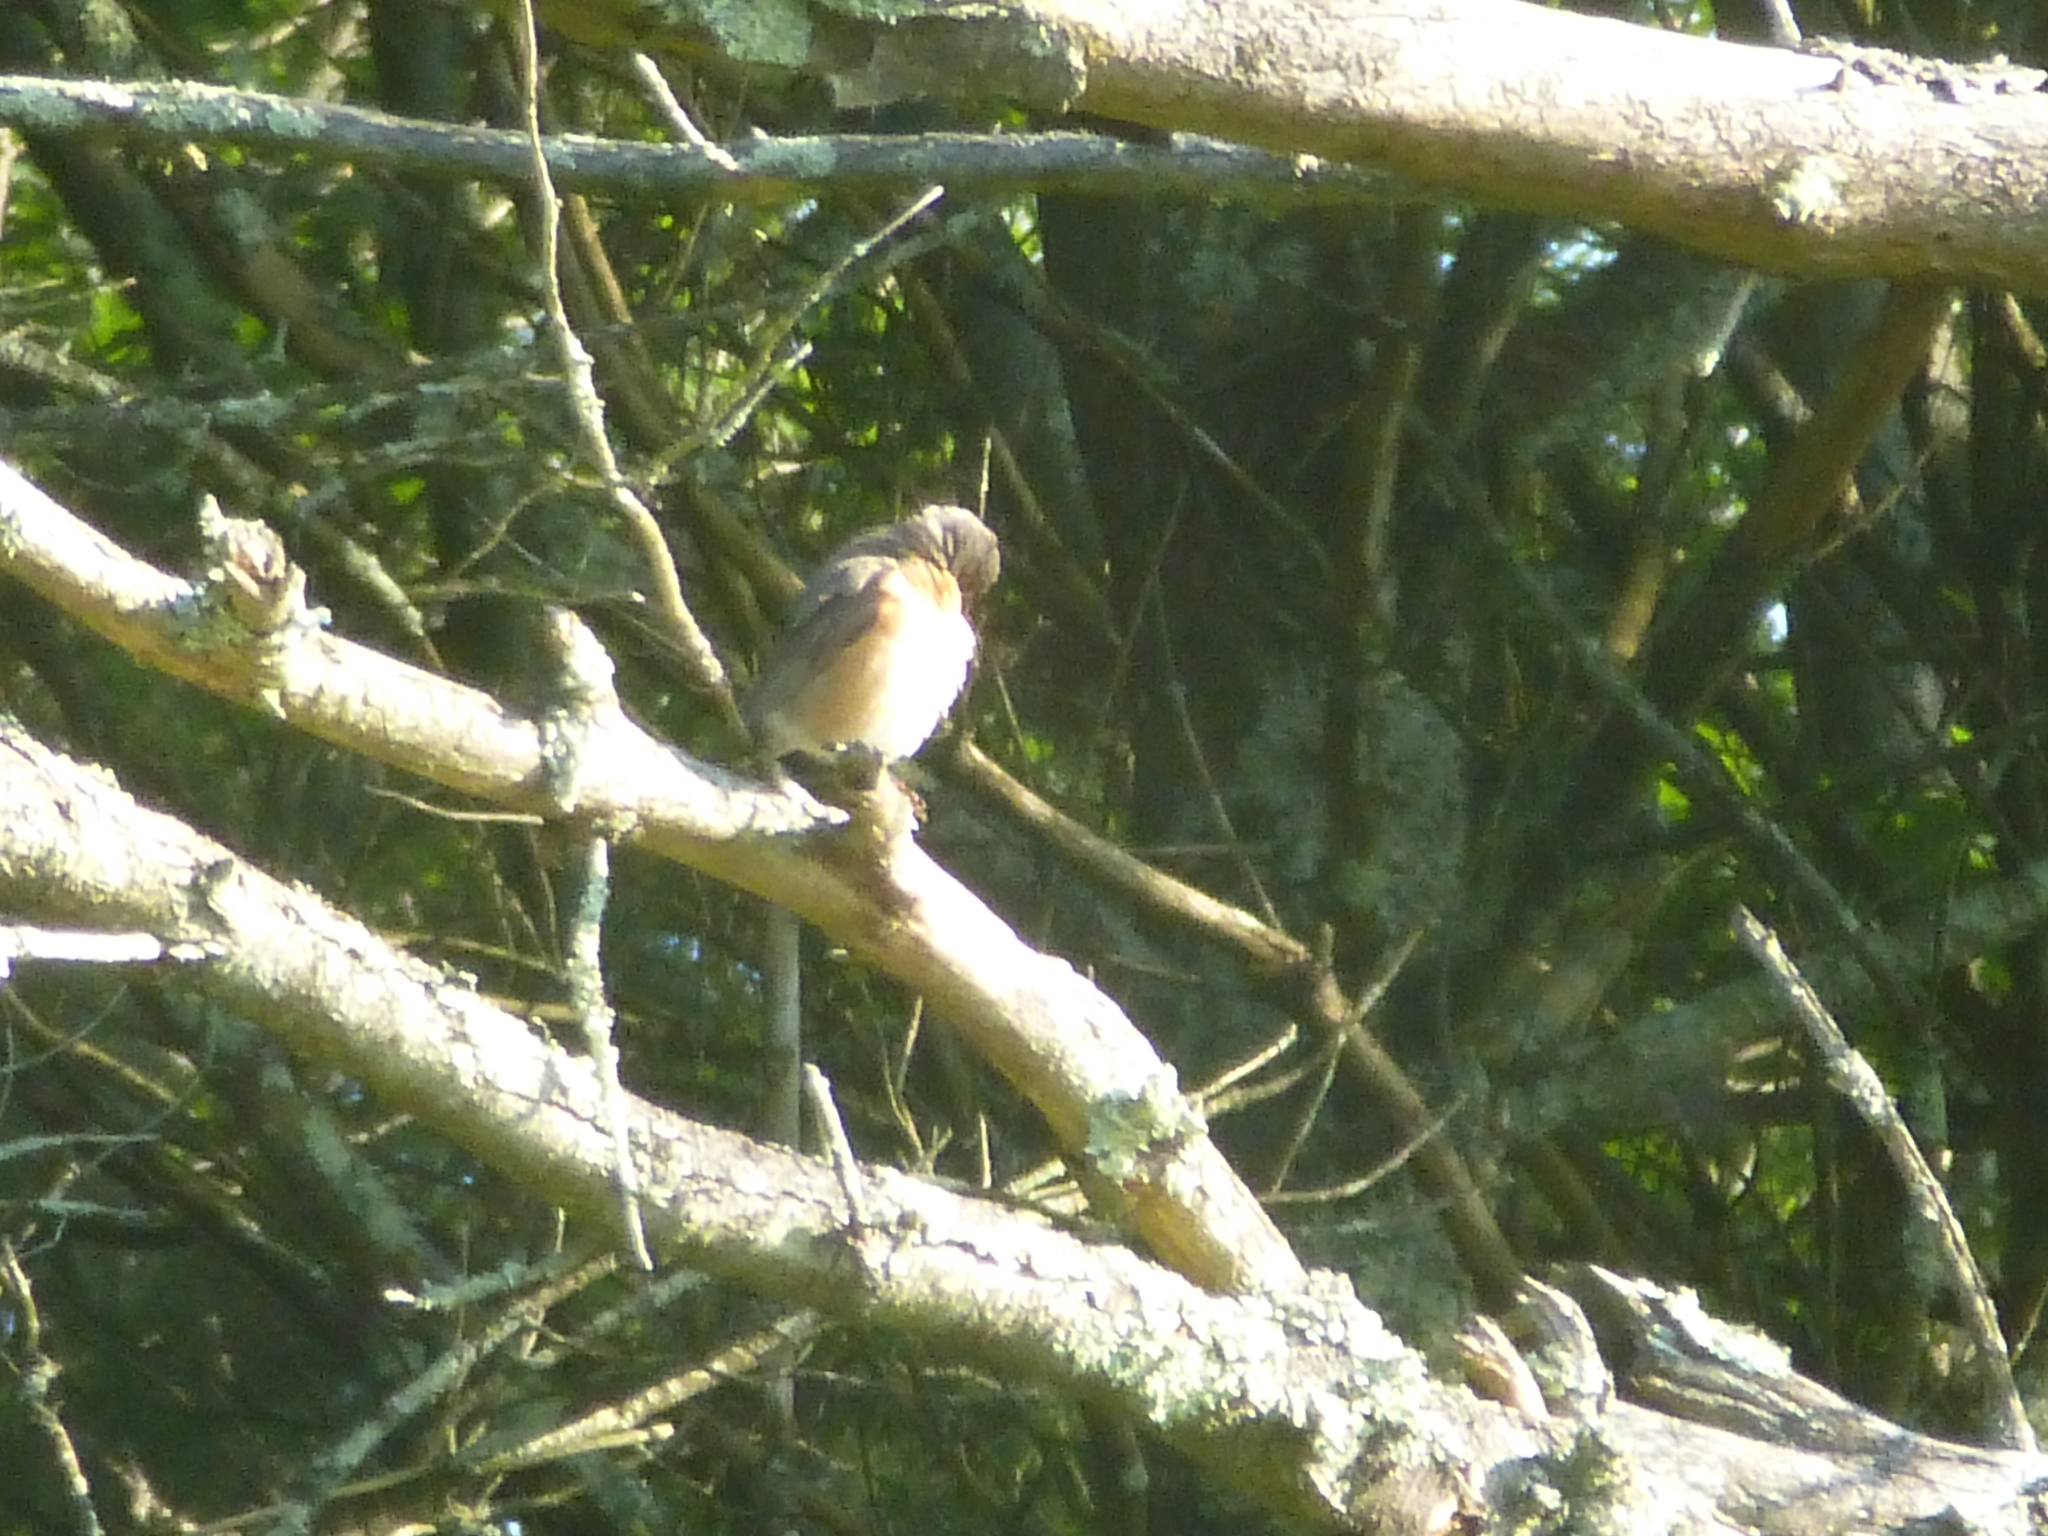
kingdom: Animalia
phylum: Chordata
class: Aves
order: Passeriformes
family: Turdidae
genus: Turdus
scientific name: Turdus migratorius
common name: American robin
